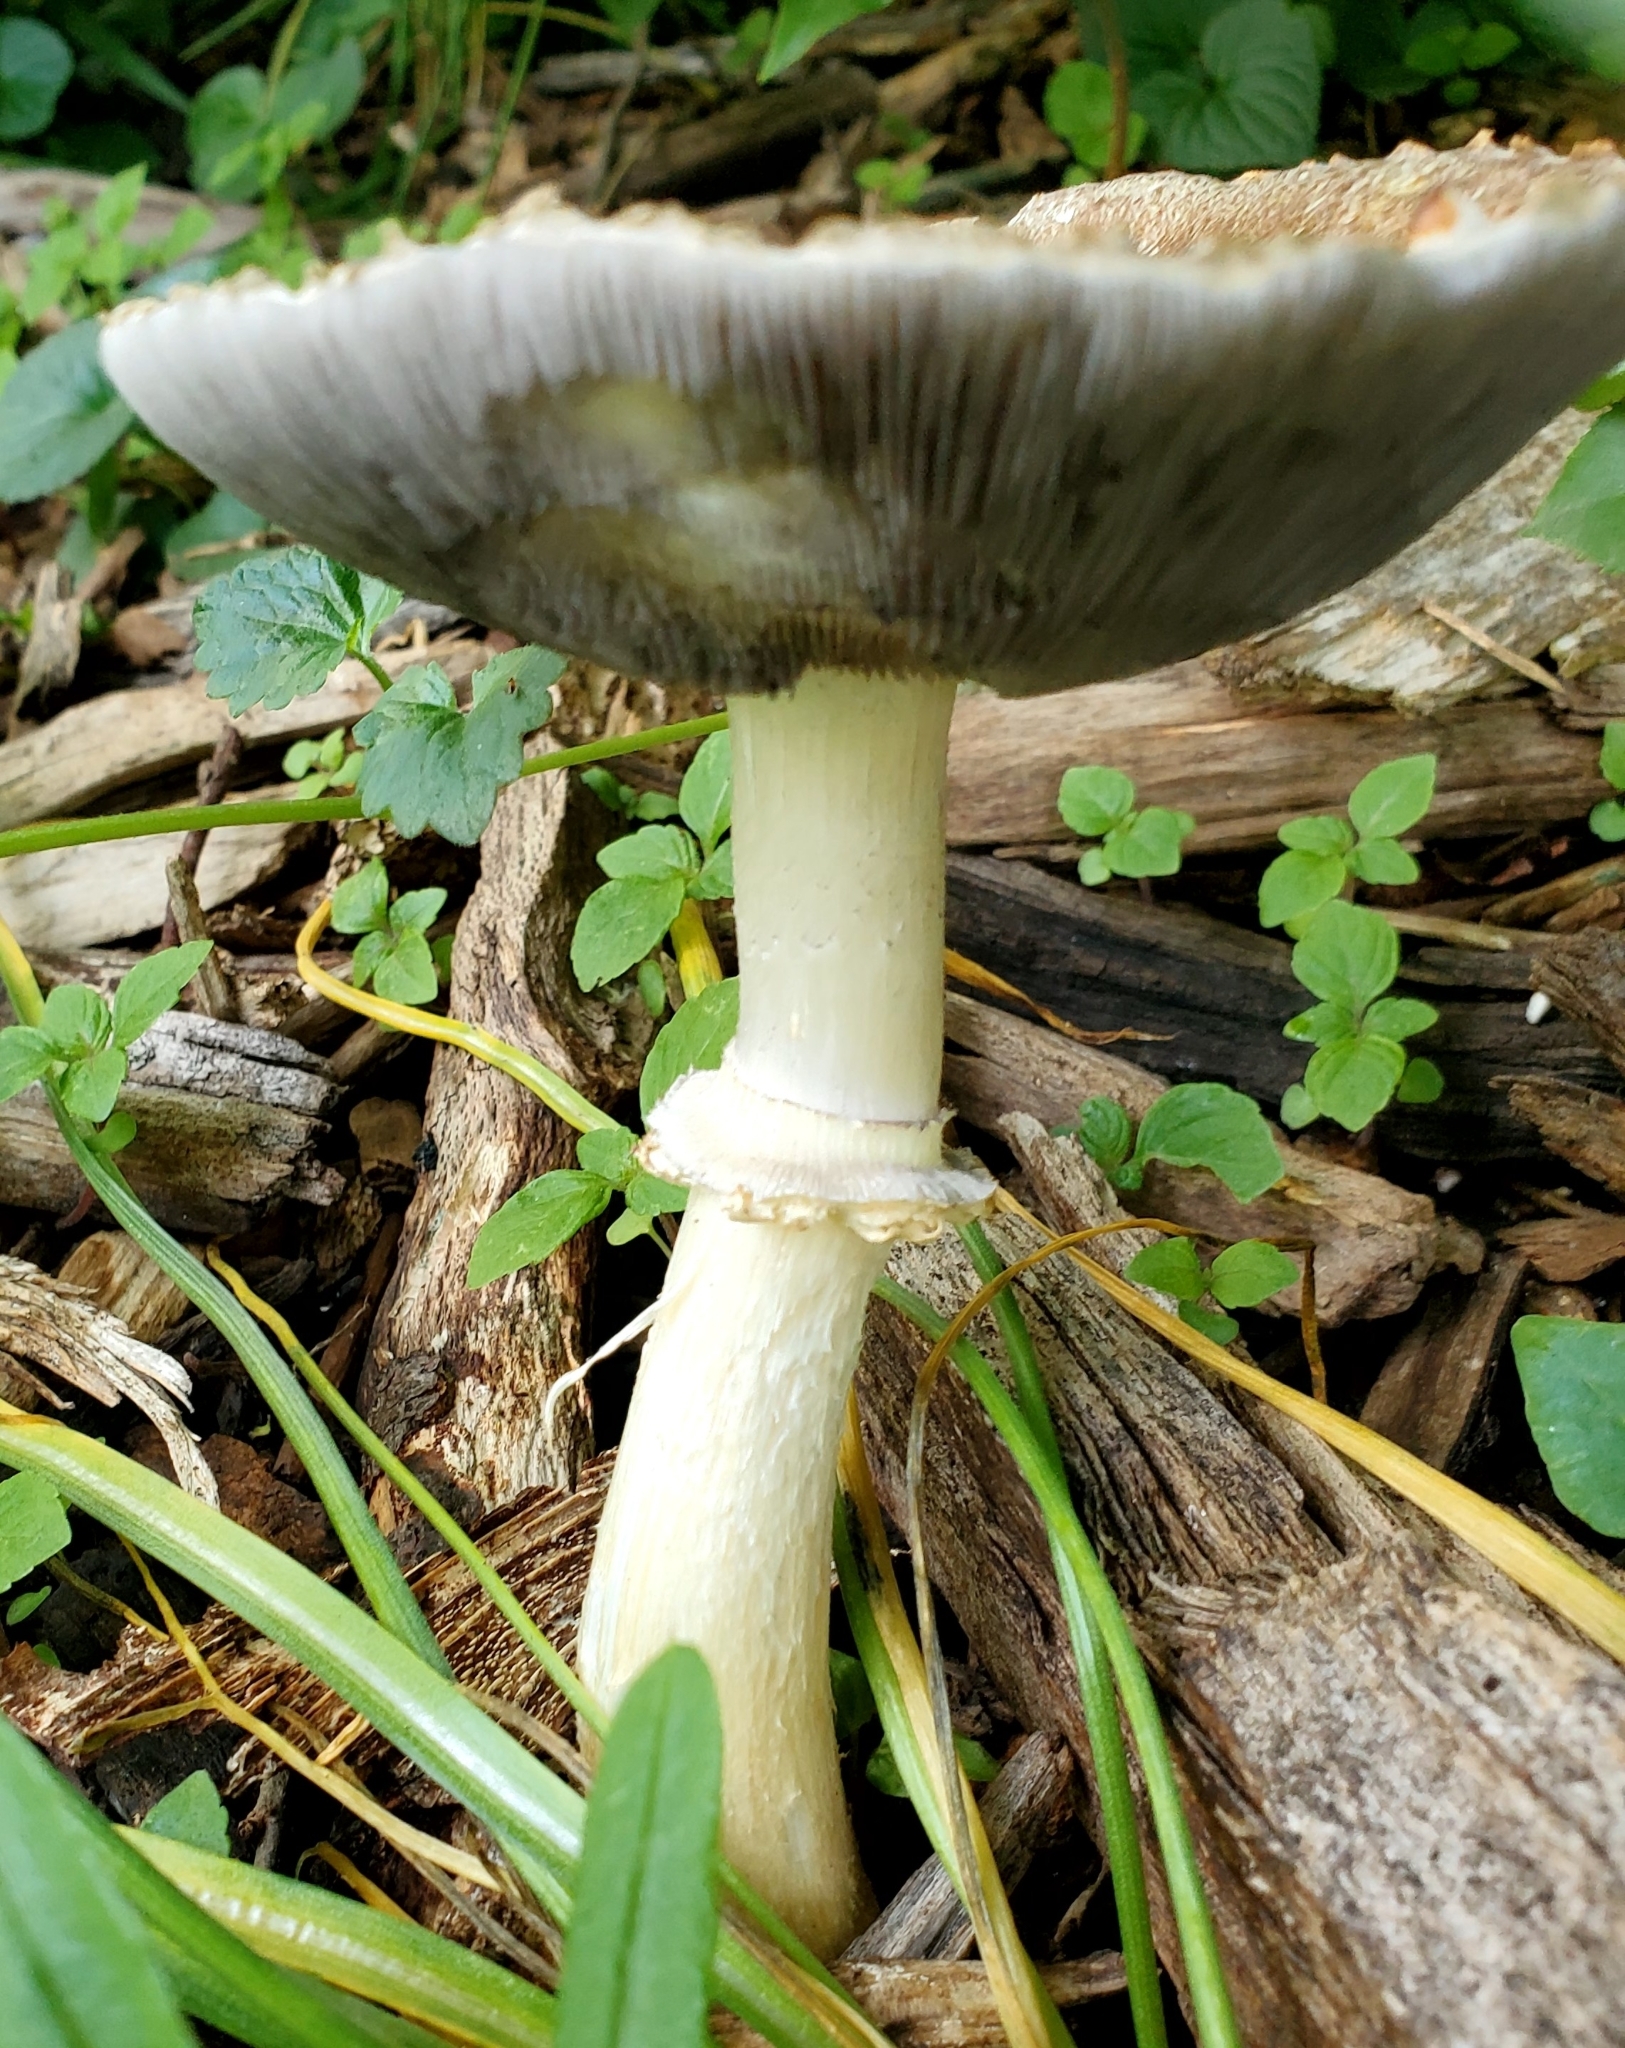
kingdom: Fungi
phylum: Basidiomycota
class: Agaricomycetes
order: Agaricales
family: Strophariaceae
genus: Stropharia
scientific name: Stropharia rugosoannulata
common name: Wine roundhead
